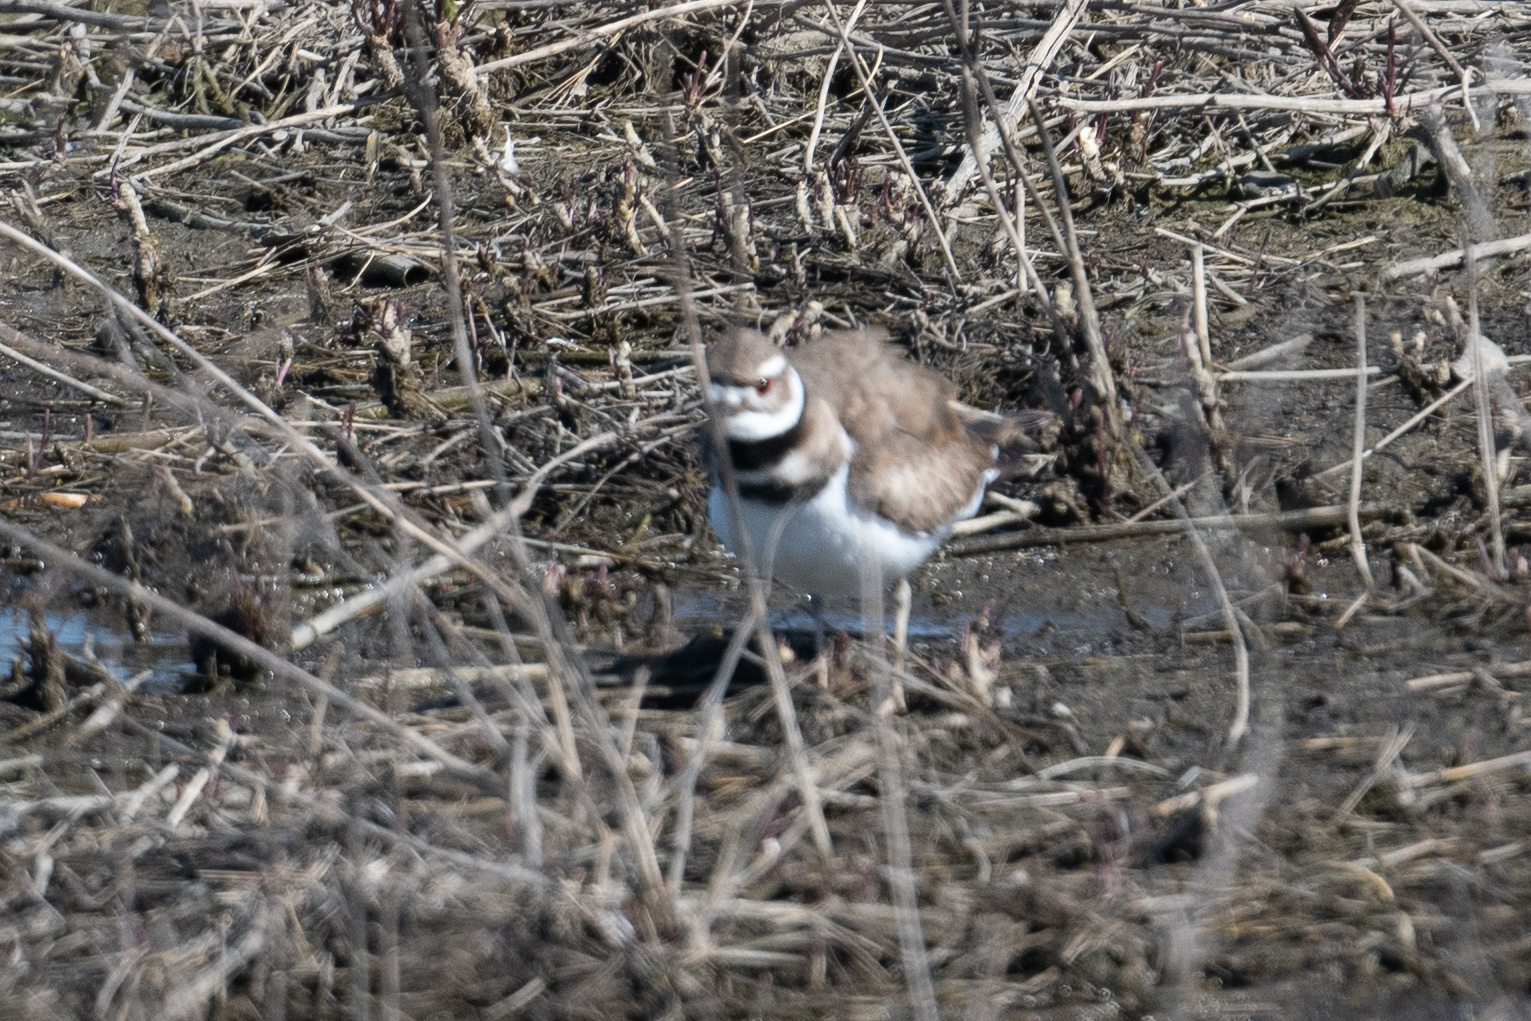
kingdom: Animalia
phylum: Chordata
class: Aves
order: Charadriiformes
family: Charadriidae
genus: Charadrius
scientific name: Charadrius vociferus
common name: Killdeer
